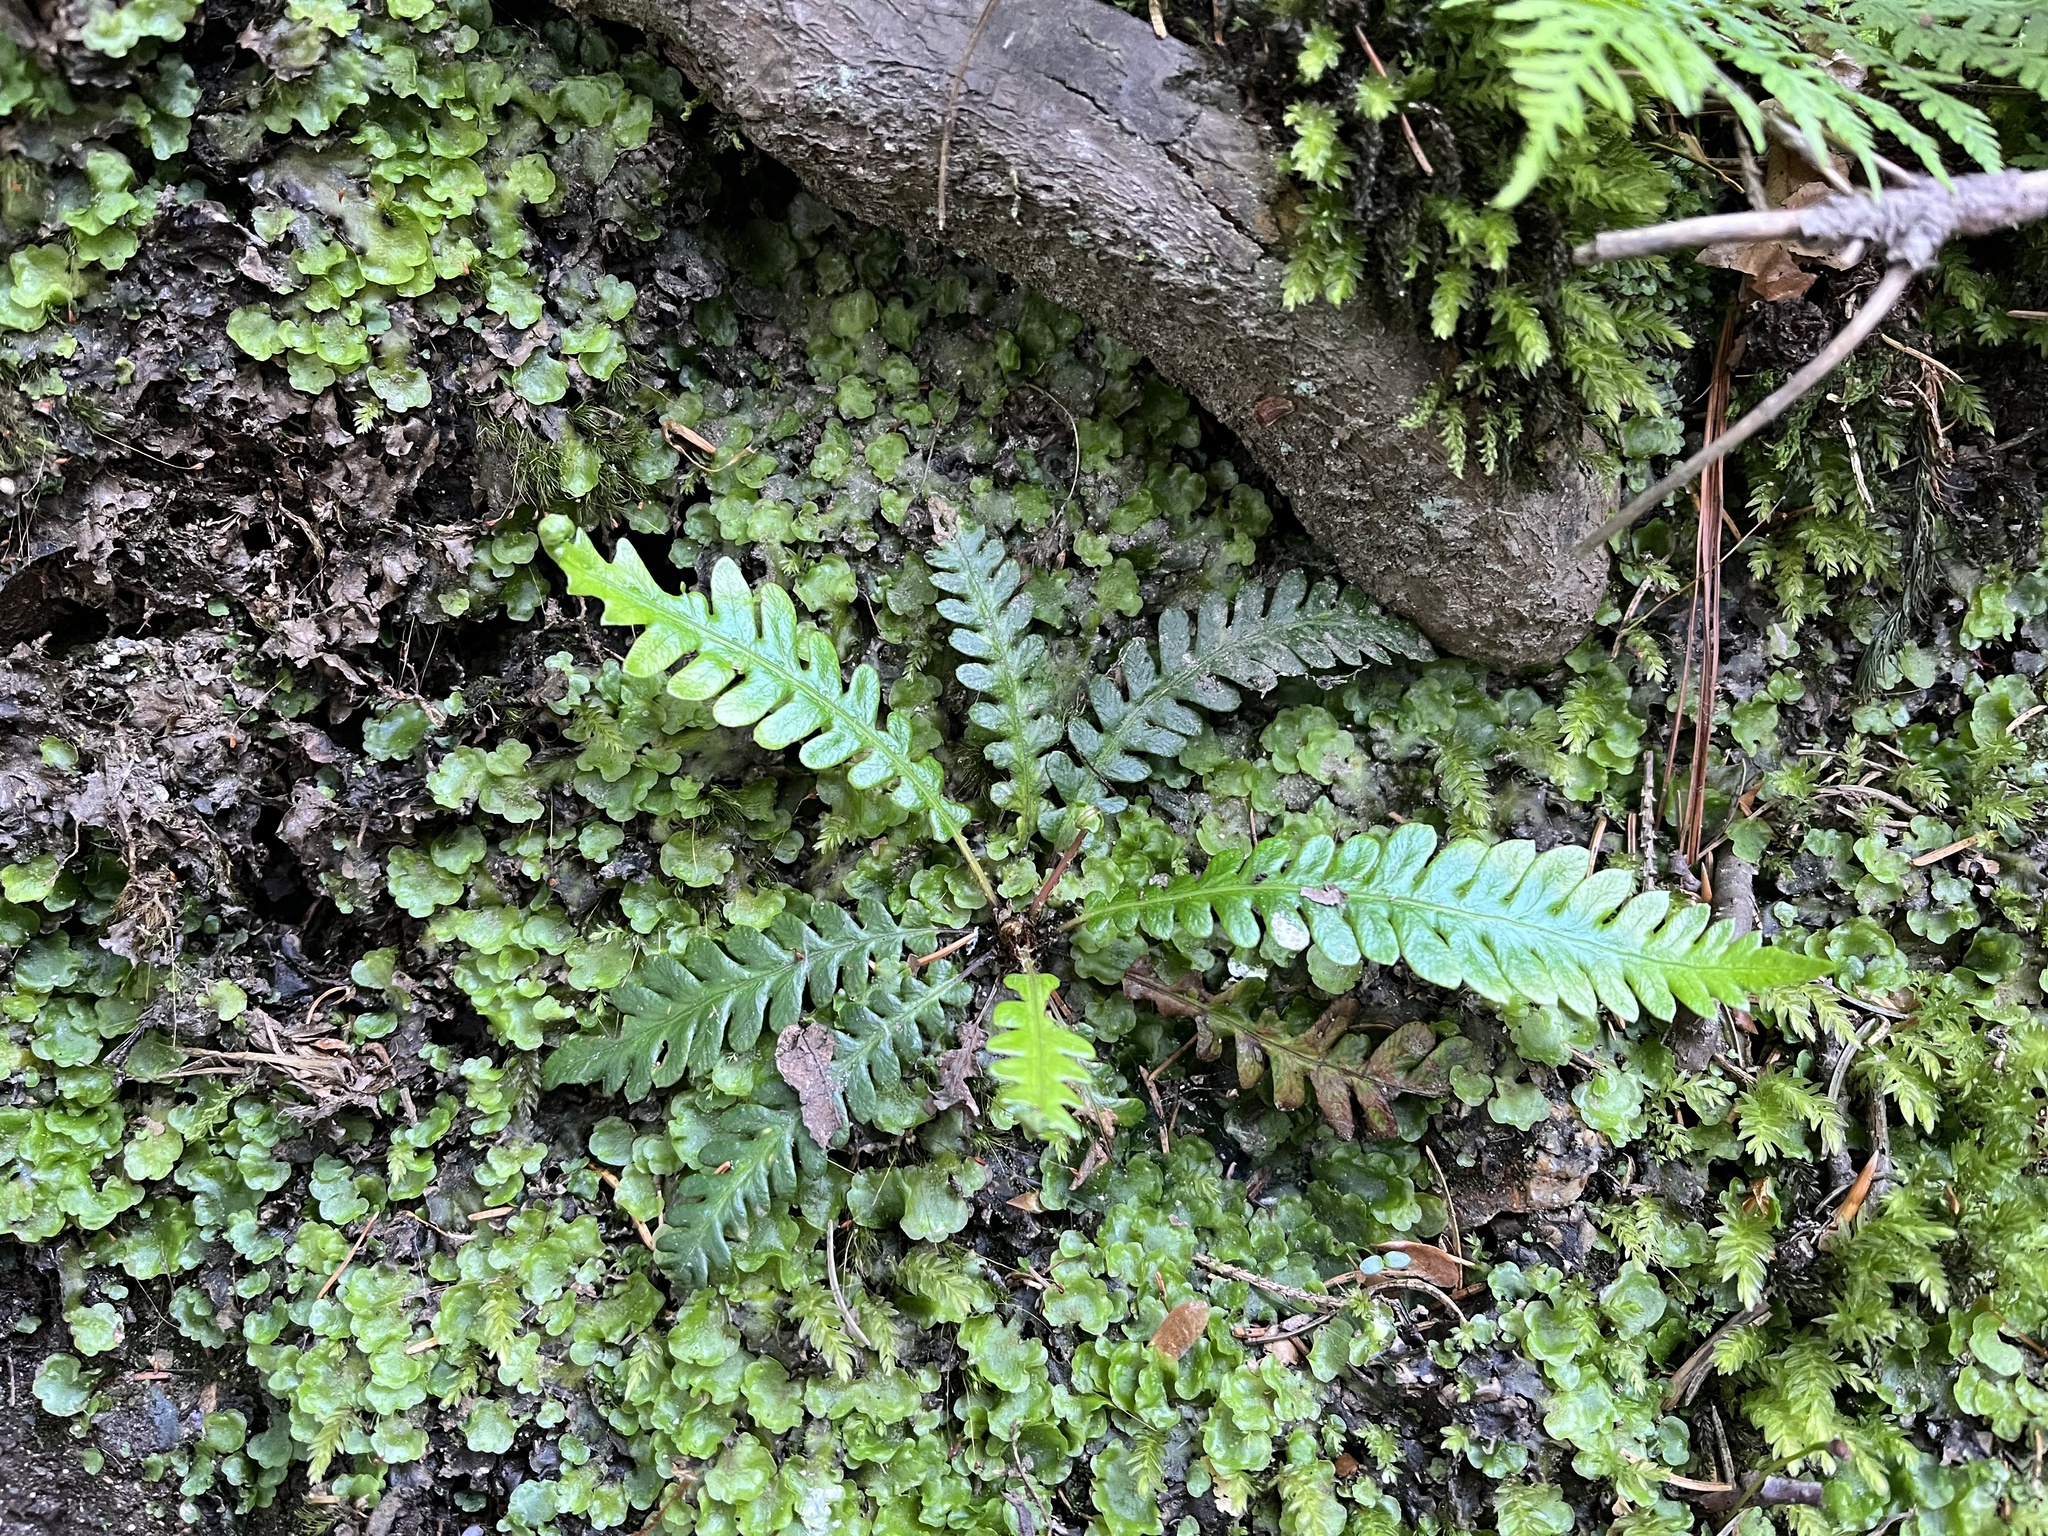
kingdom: Plantae
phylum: Tracheophyta
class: Polypodiopsida
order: Polypodiales
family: Blechnaceae
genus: Struthiopteris
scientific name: Struthiopteris spicant
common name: Deer fern
